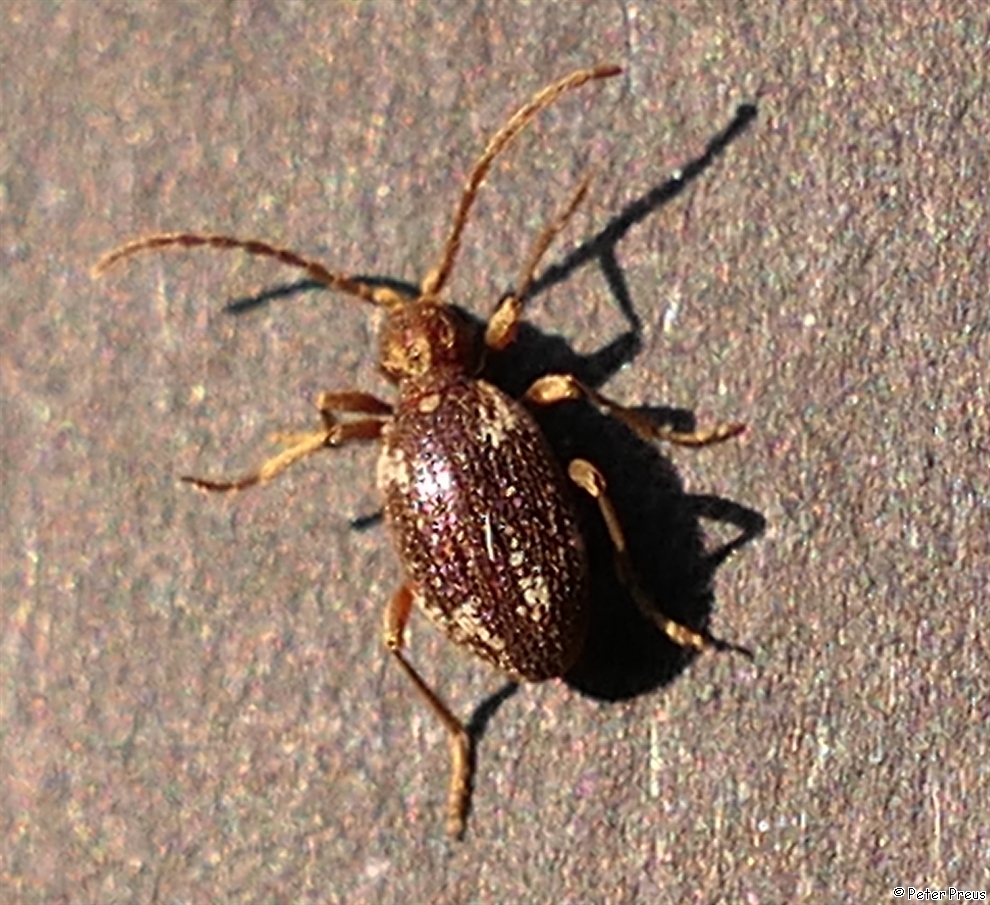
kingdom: Animalia
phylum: Arthropoda
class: Insecta
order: Coleoptera
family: Ptinidae
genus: Ptinus
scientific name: Ptinus fur
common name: White-marked spider beetle
